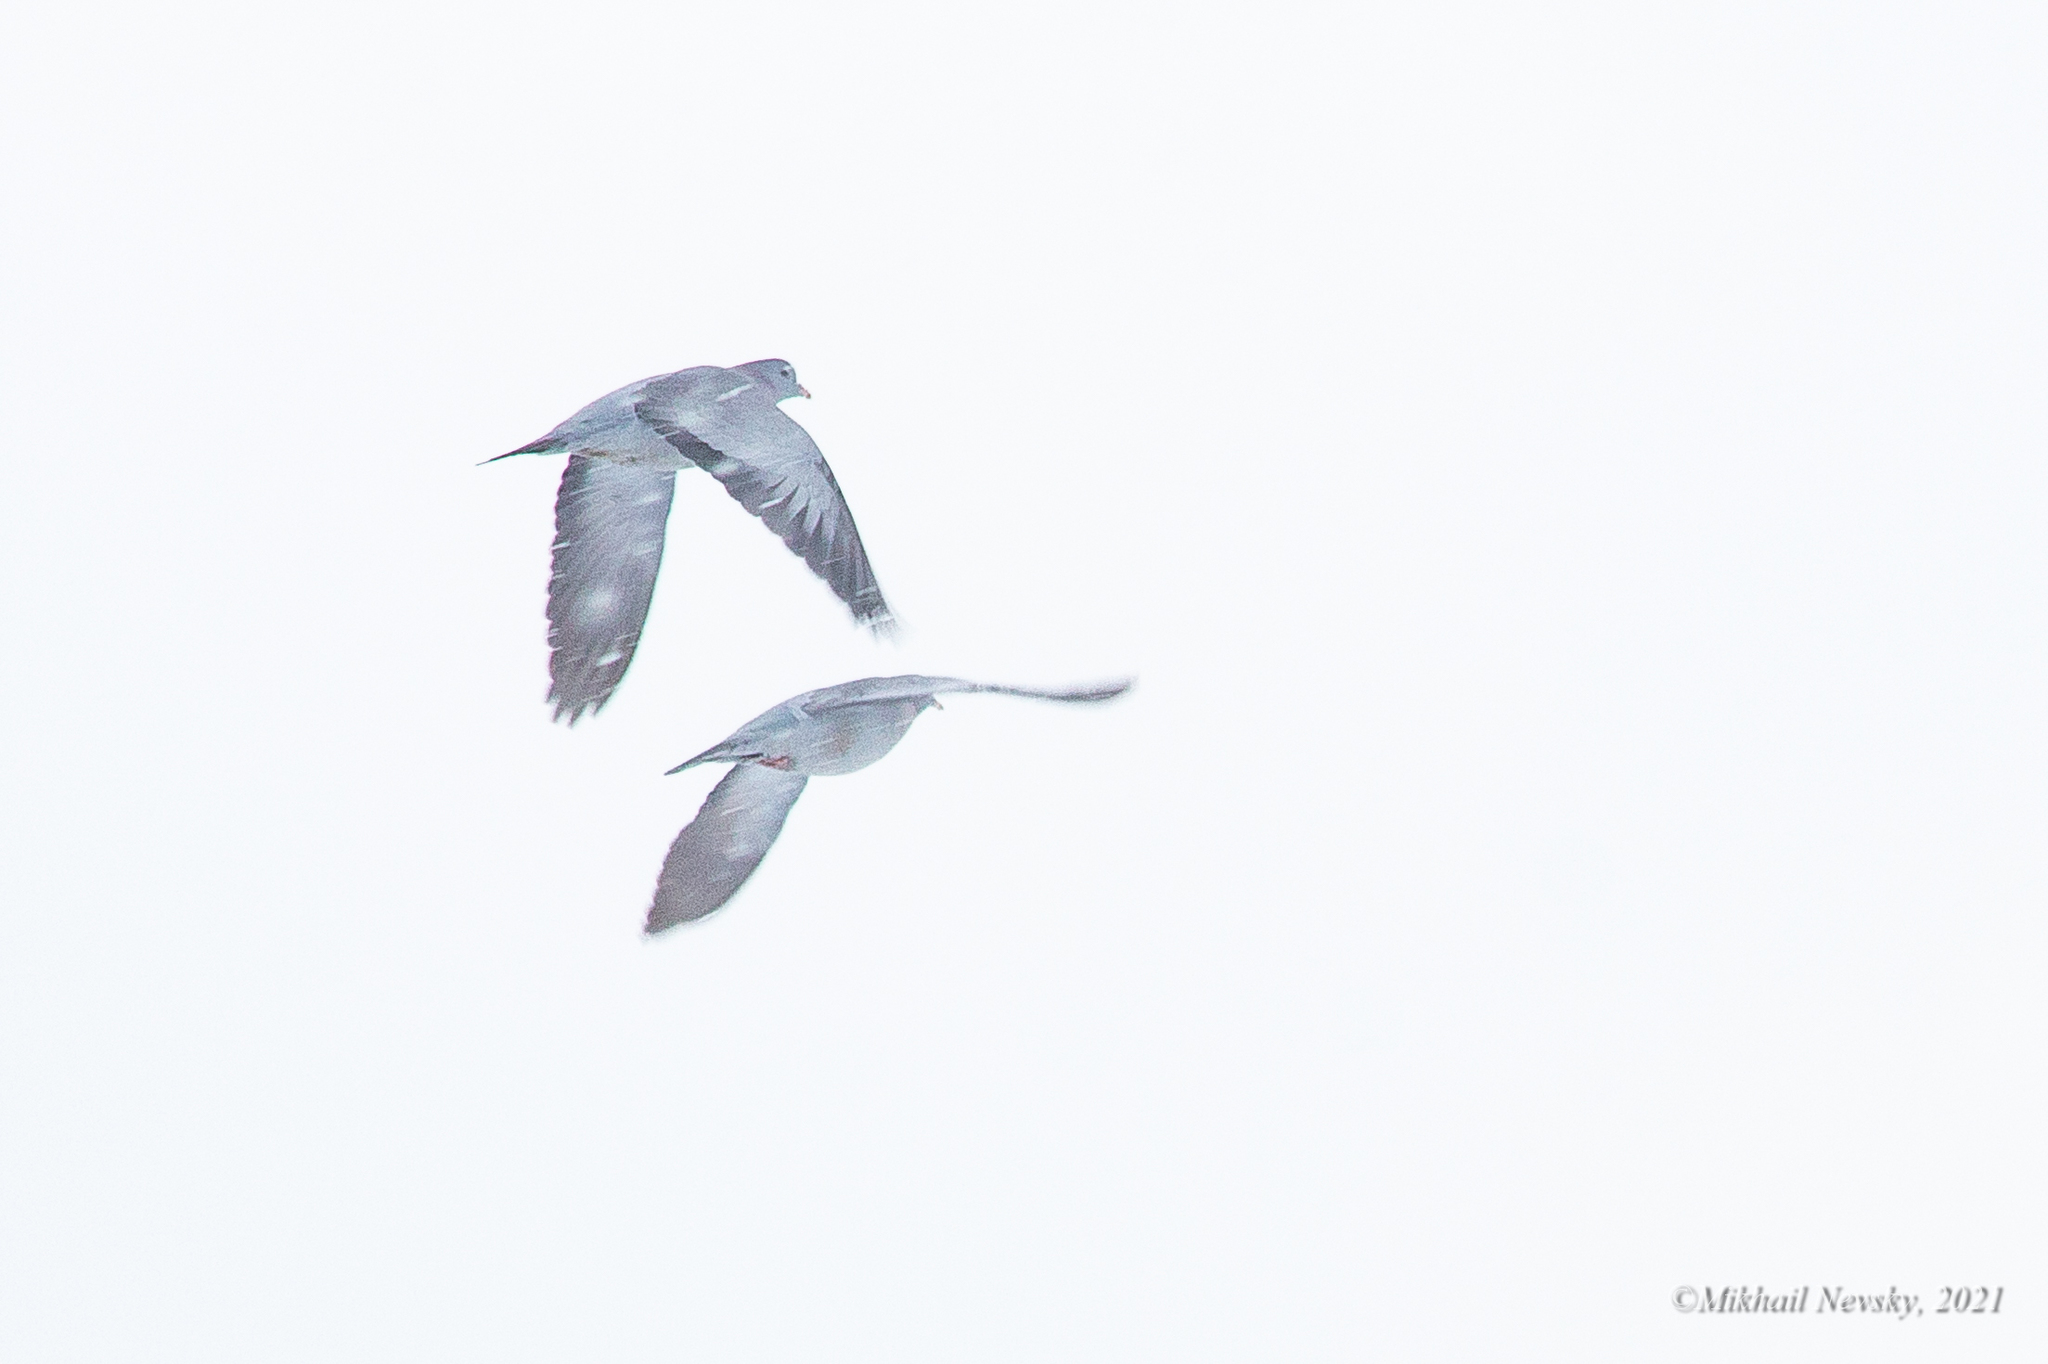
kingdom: Animalia
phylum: Chordata
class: Aves
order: Columbiformes
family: Columbidae
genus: Columba
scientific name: Columba oenas
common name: Stock dove
